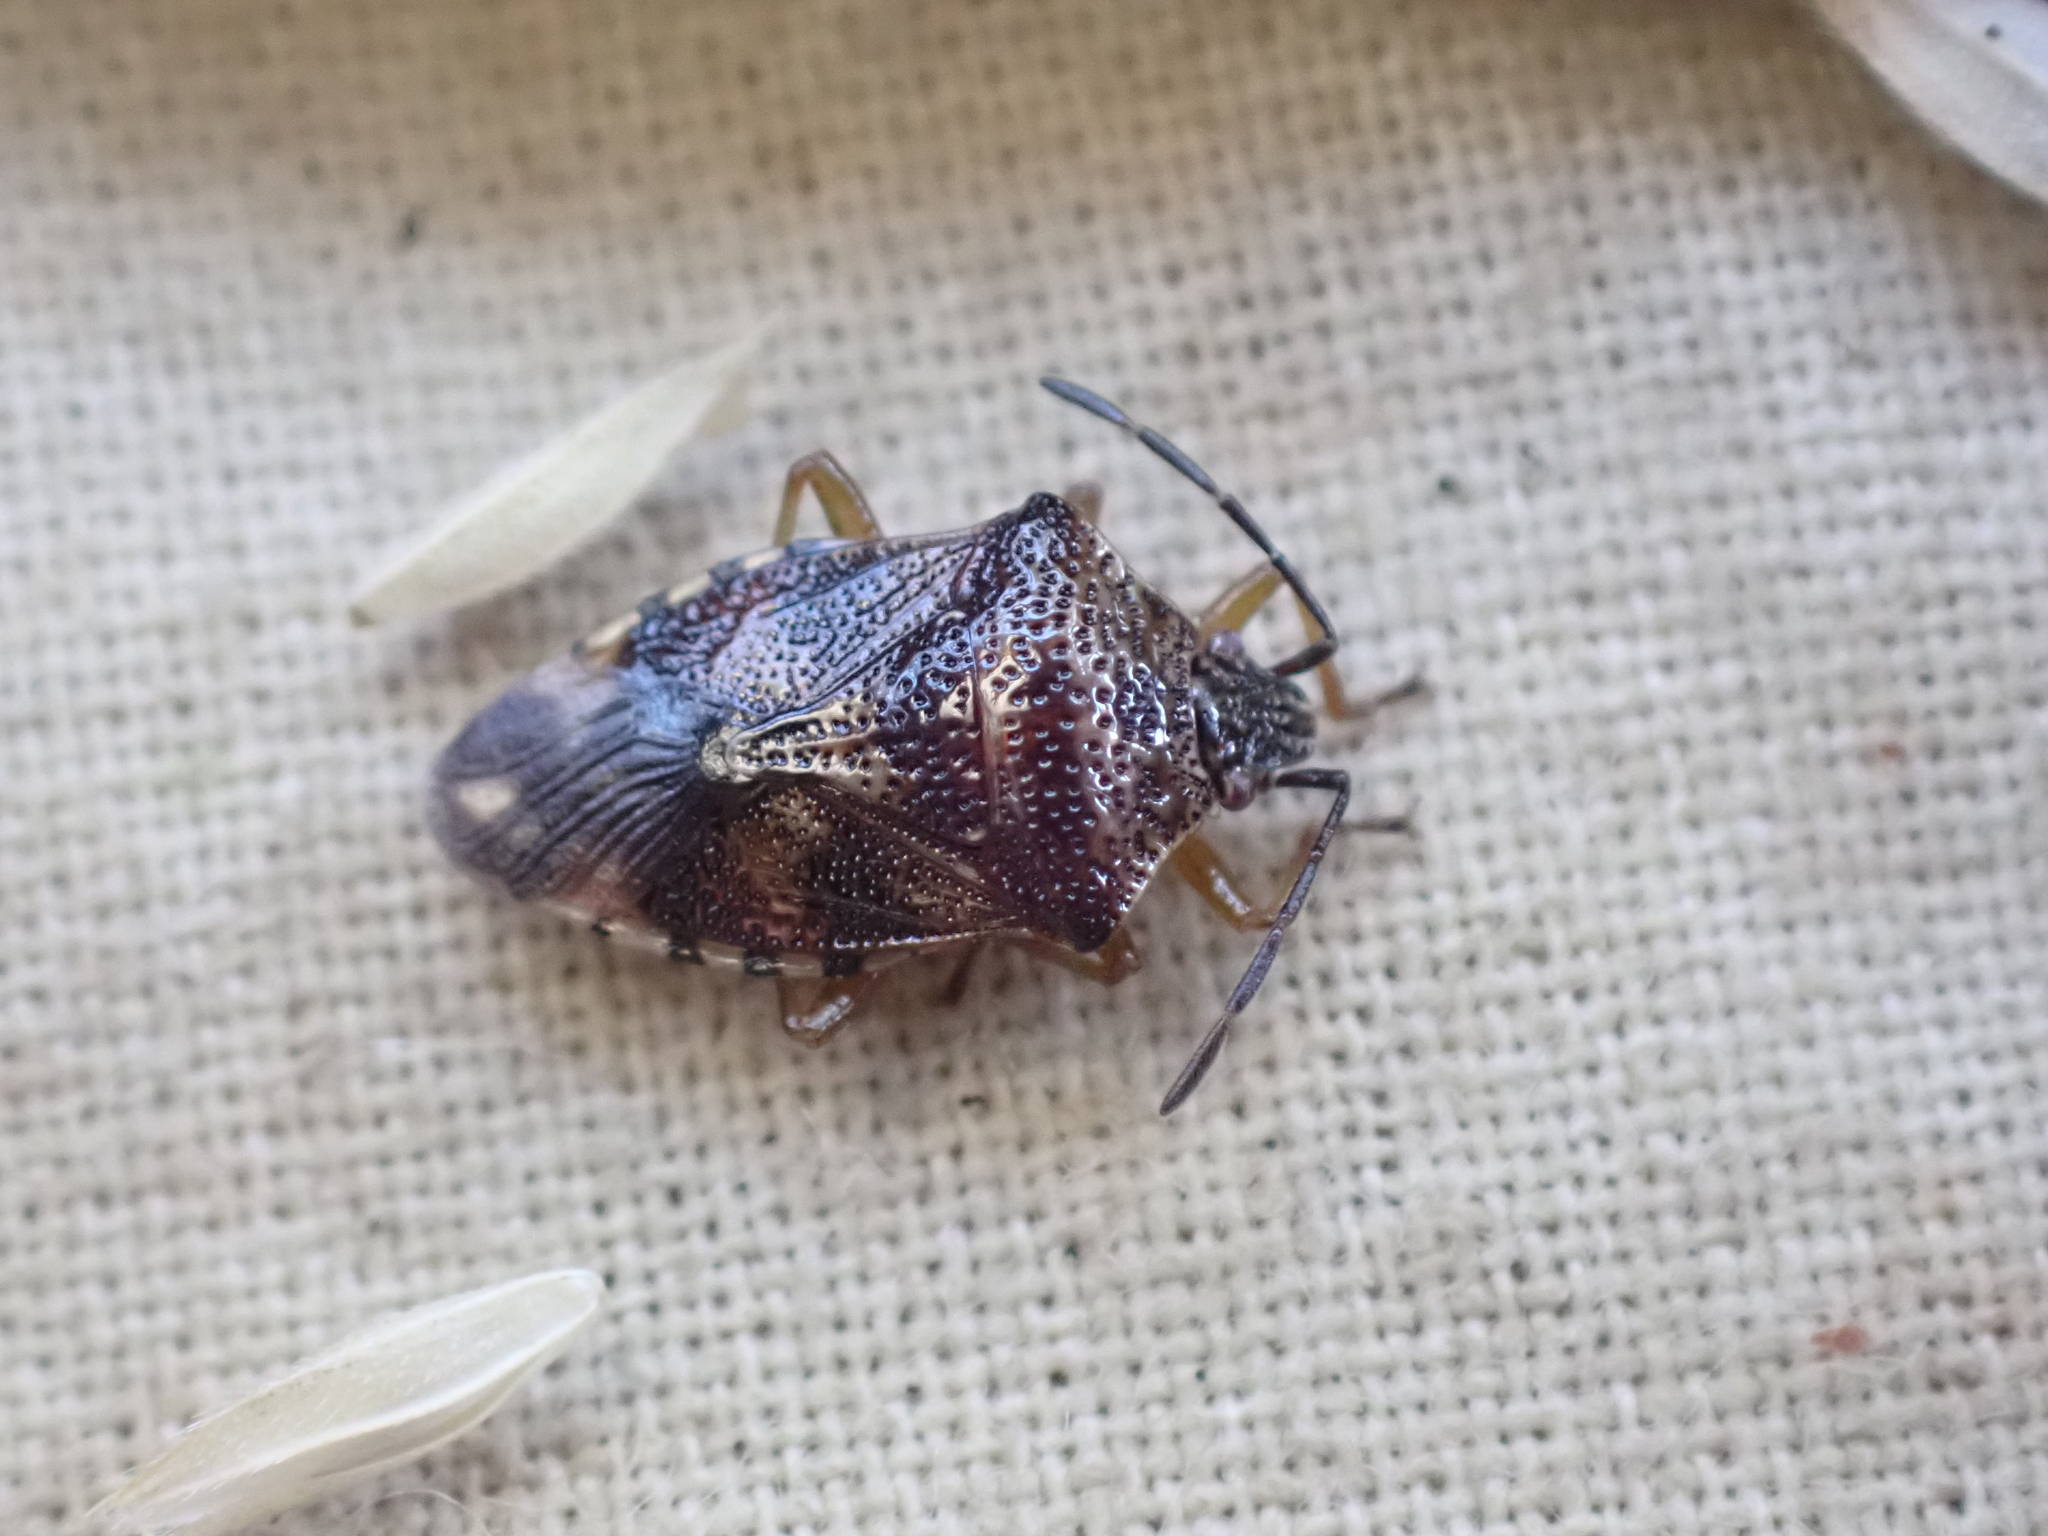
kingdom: Animalia
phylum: Arthropoda
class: Insecta
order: Hemiptera
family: Acanthosomatidae
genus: Elasmucha
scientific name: Elasmucha lateralis
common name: Shield bug
